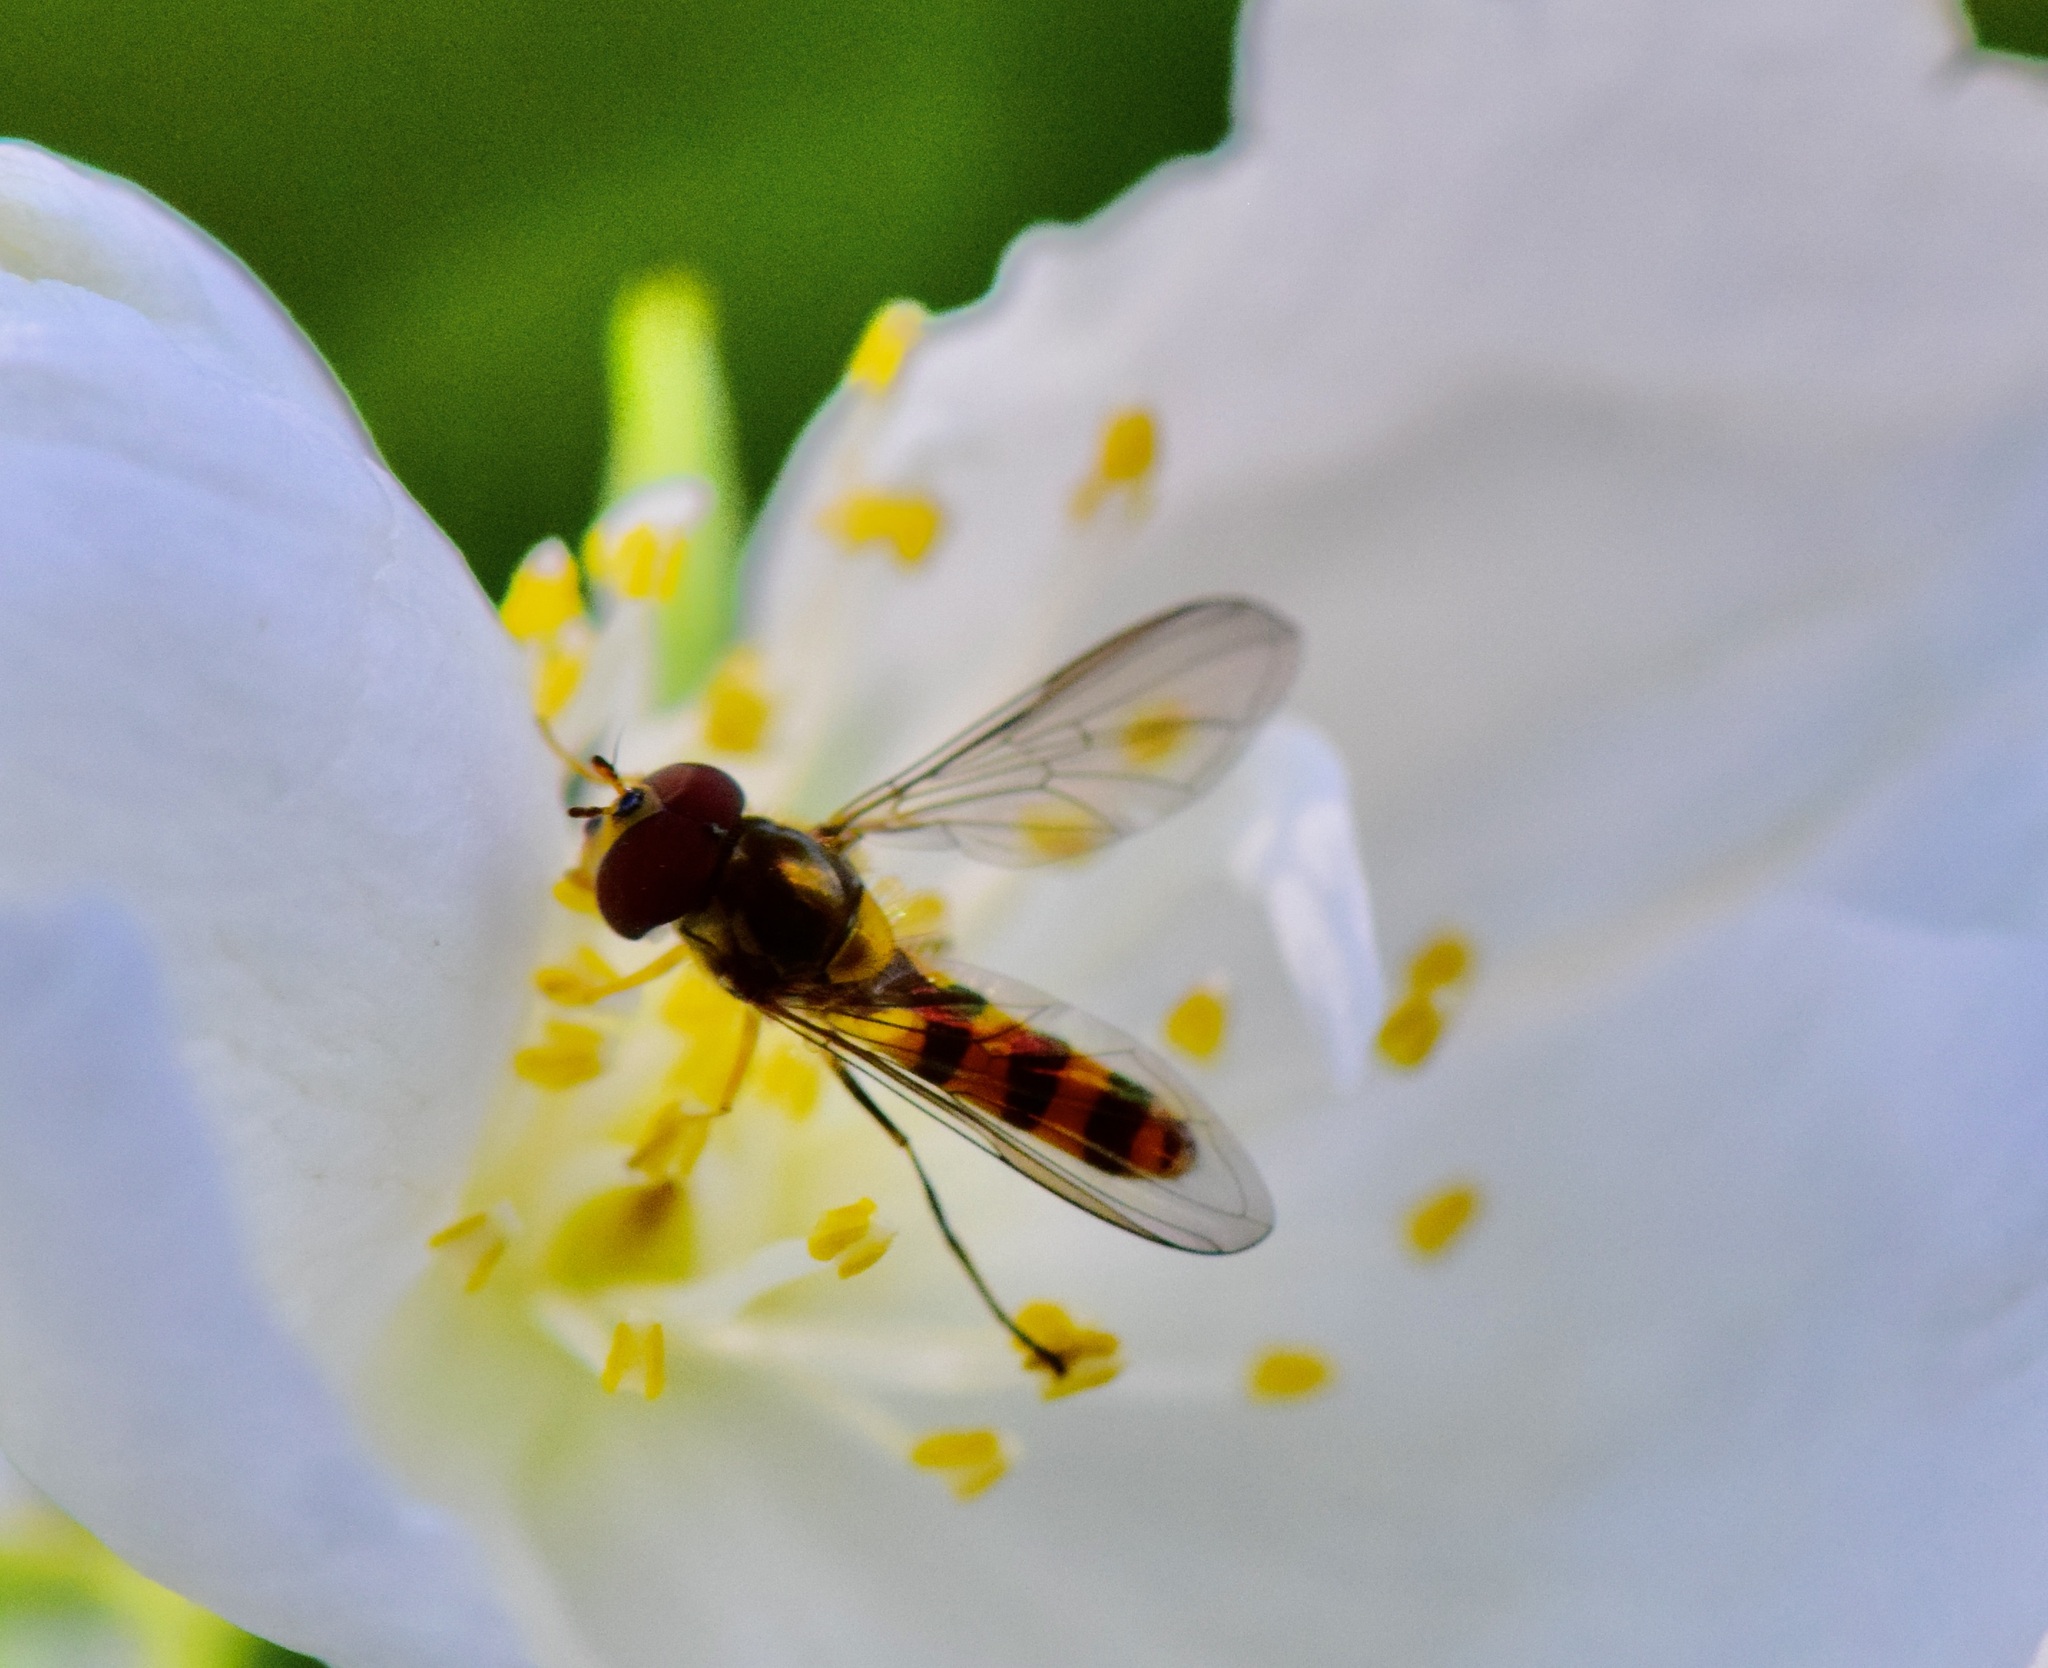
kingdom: Animalia
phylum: Arthropoda
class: Insecta
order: Diptera
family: Syrphidae
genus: Meliscaeva
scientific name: Meliscaeva cinctella
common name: American thintail fly
